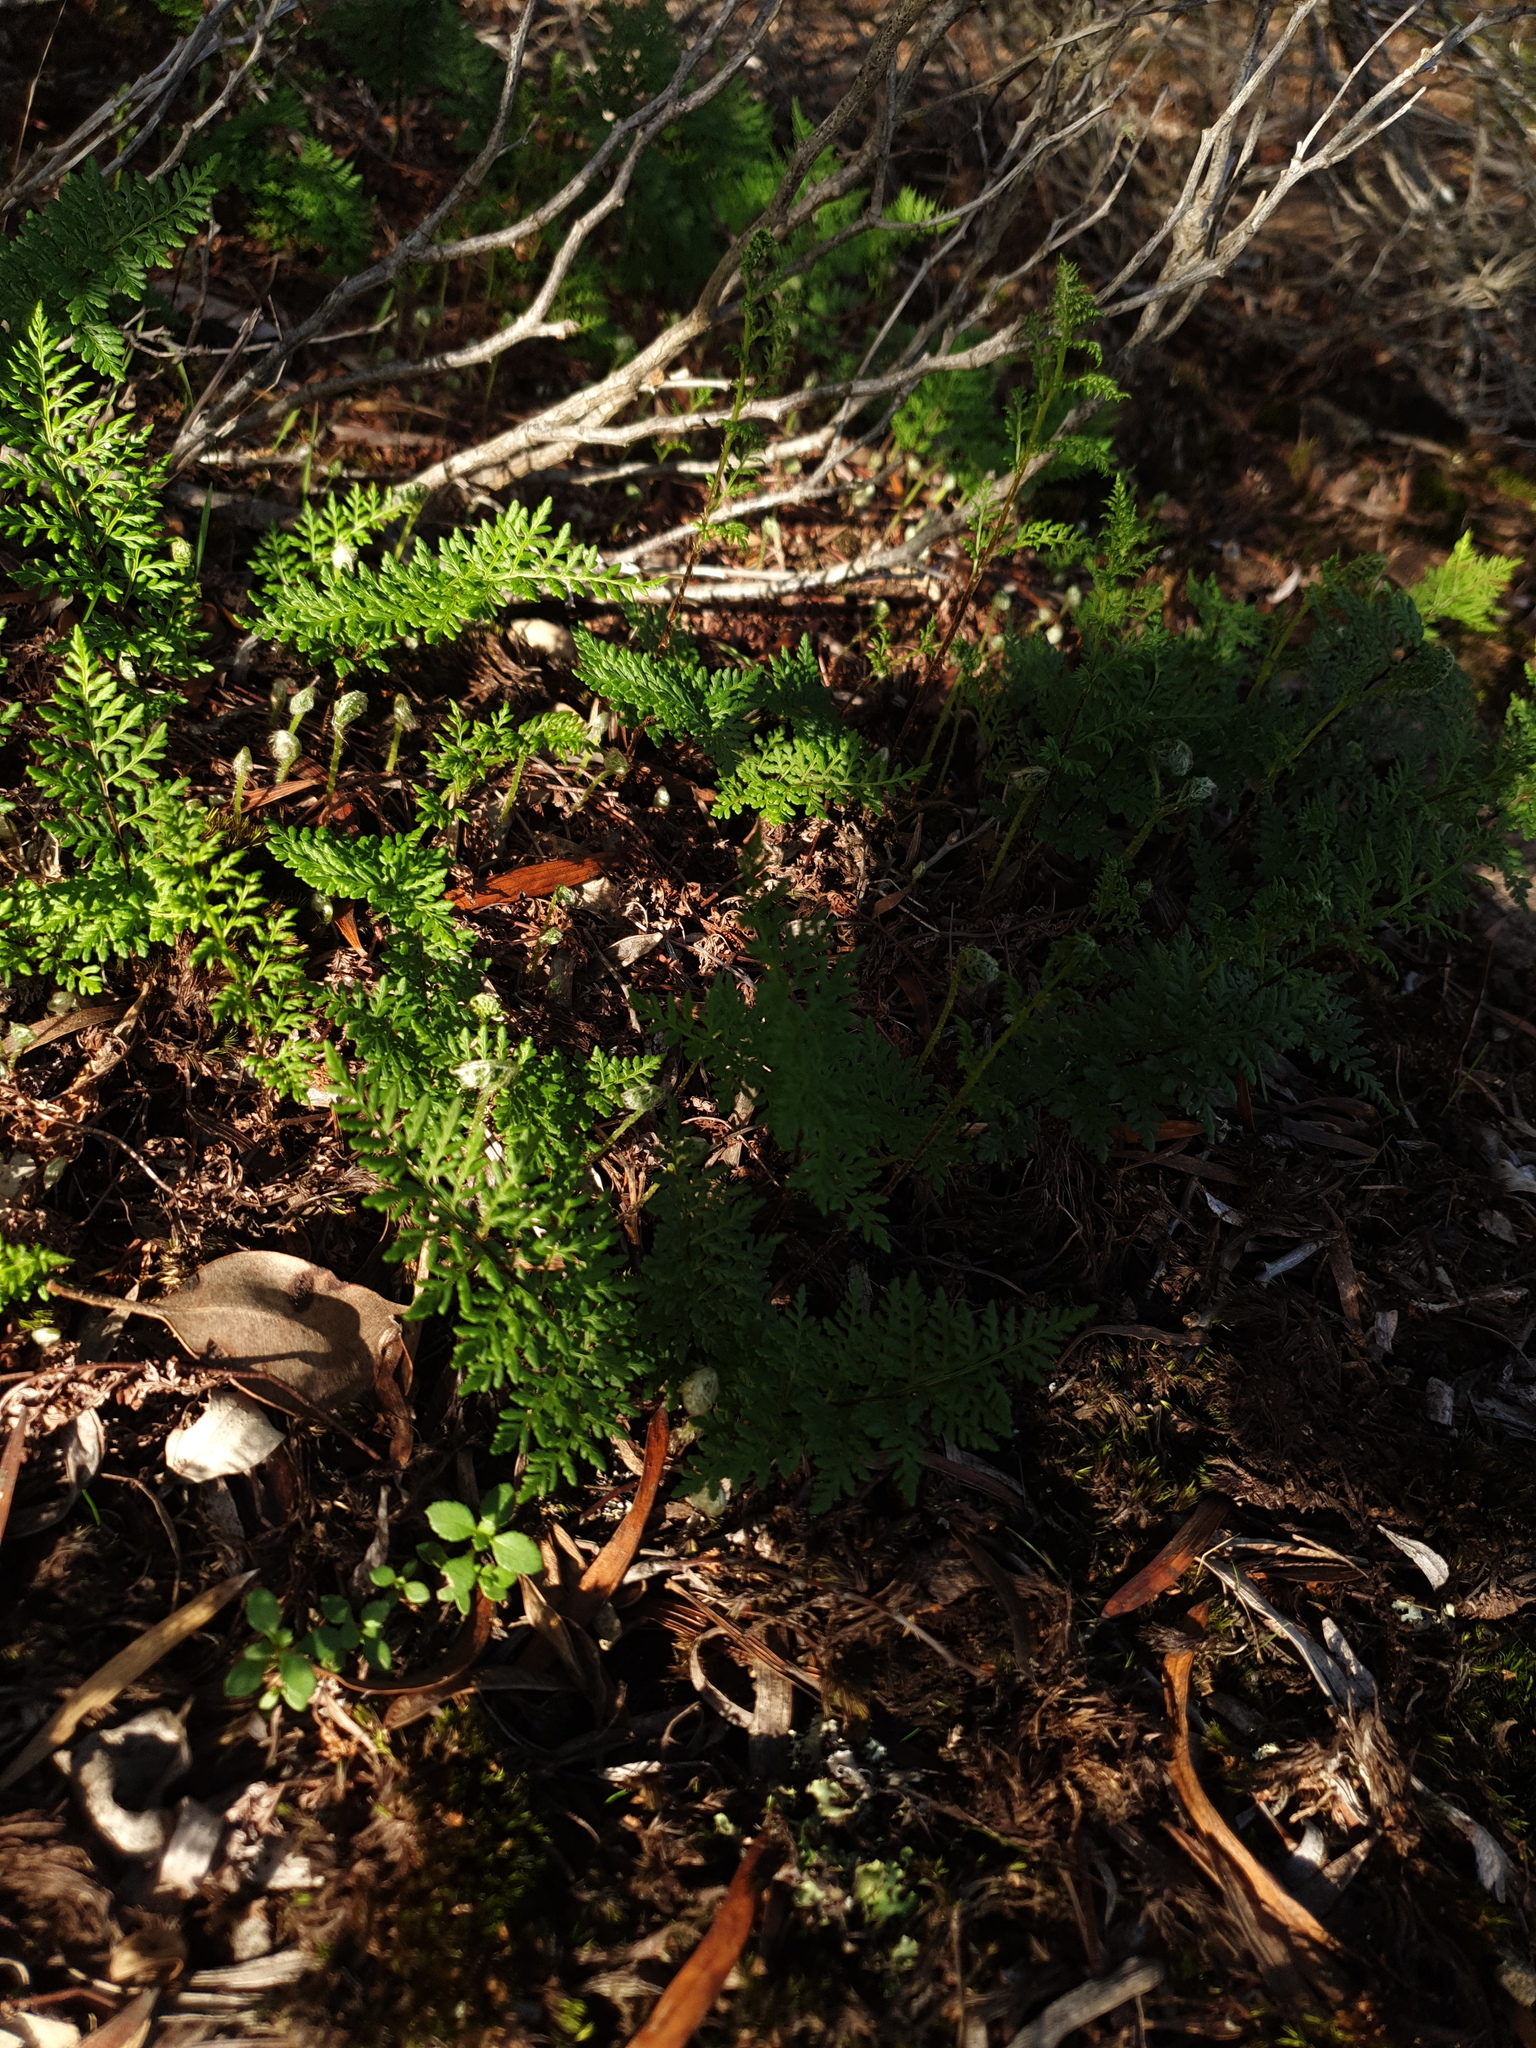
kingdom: Plantae
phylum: Tracheophyta
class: Polypodiopsida
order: Polypodiales
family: Pteridaceae
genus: Cheilanthes
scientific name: Cheilanthes austrotenuifolia
